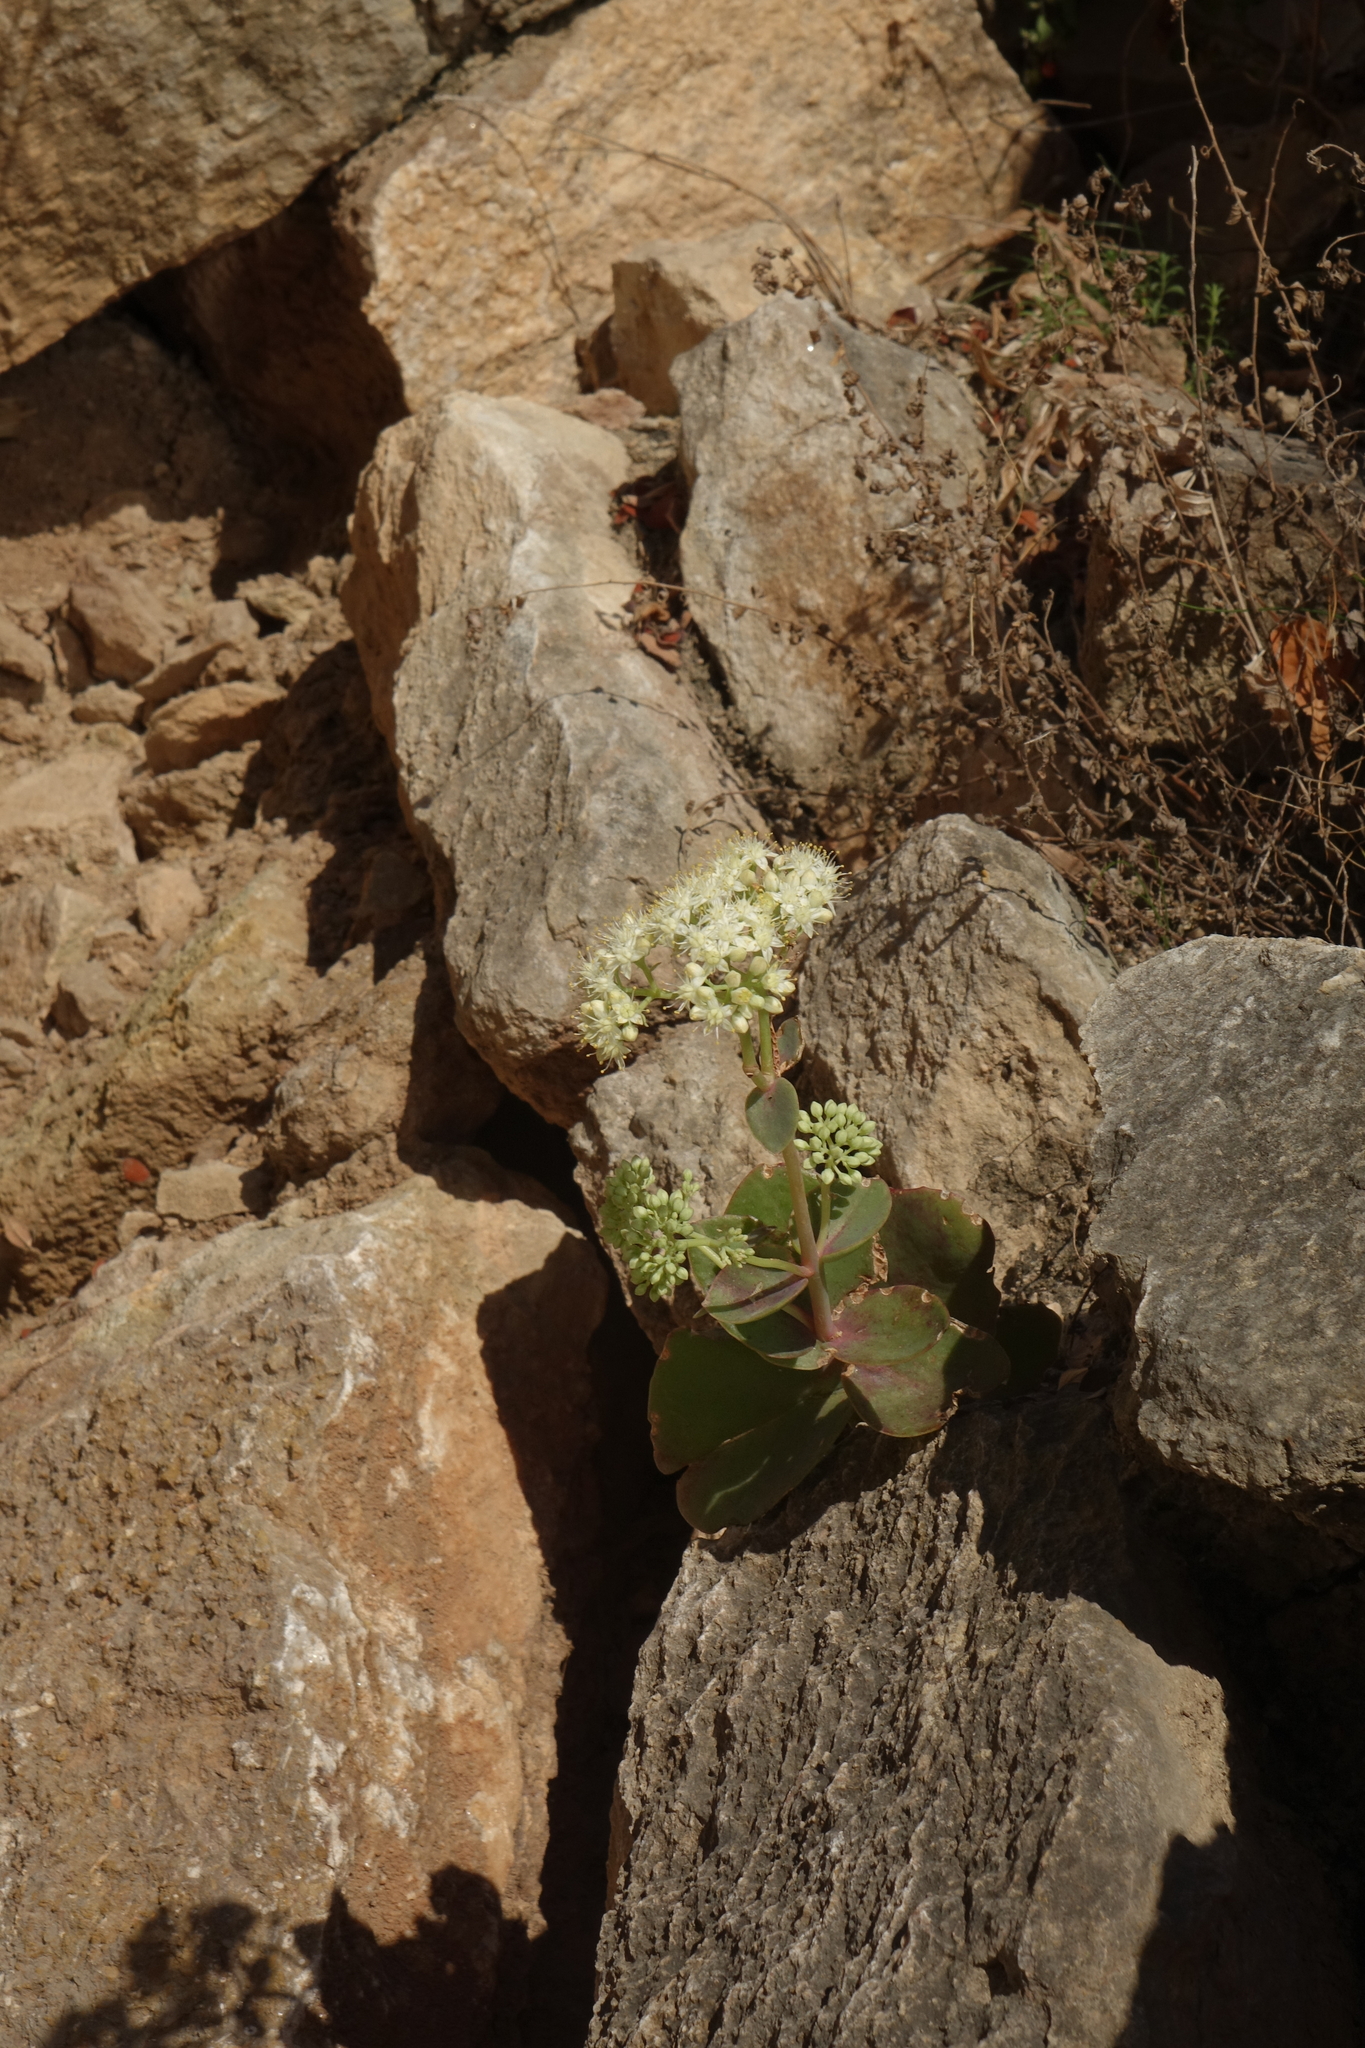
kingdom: Plantae
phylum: Tracheophyta
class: Magnoliopsida
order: Saxifragales
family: Crassulaceae
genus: Hylotelephium
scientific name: Hylotelephium maximum
